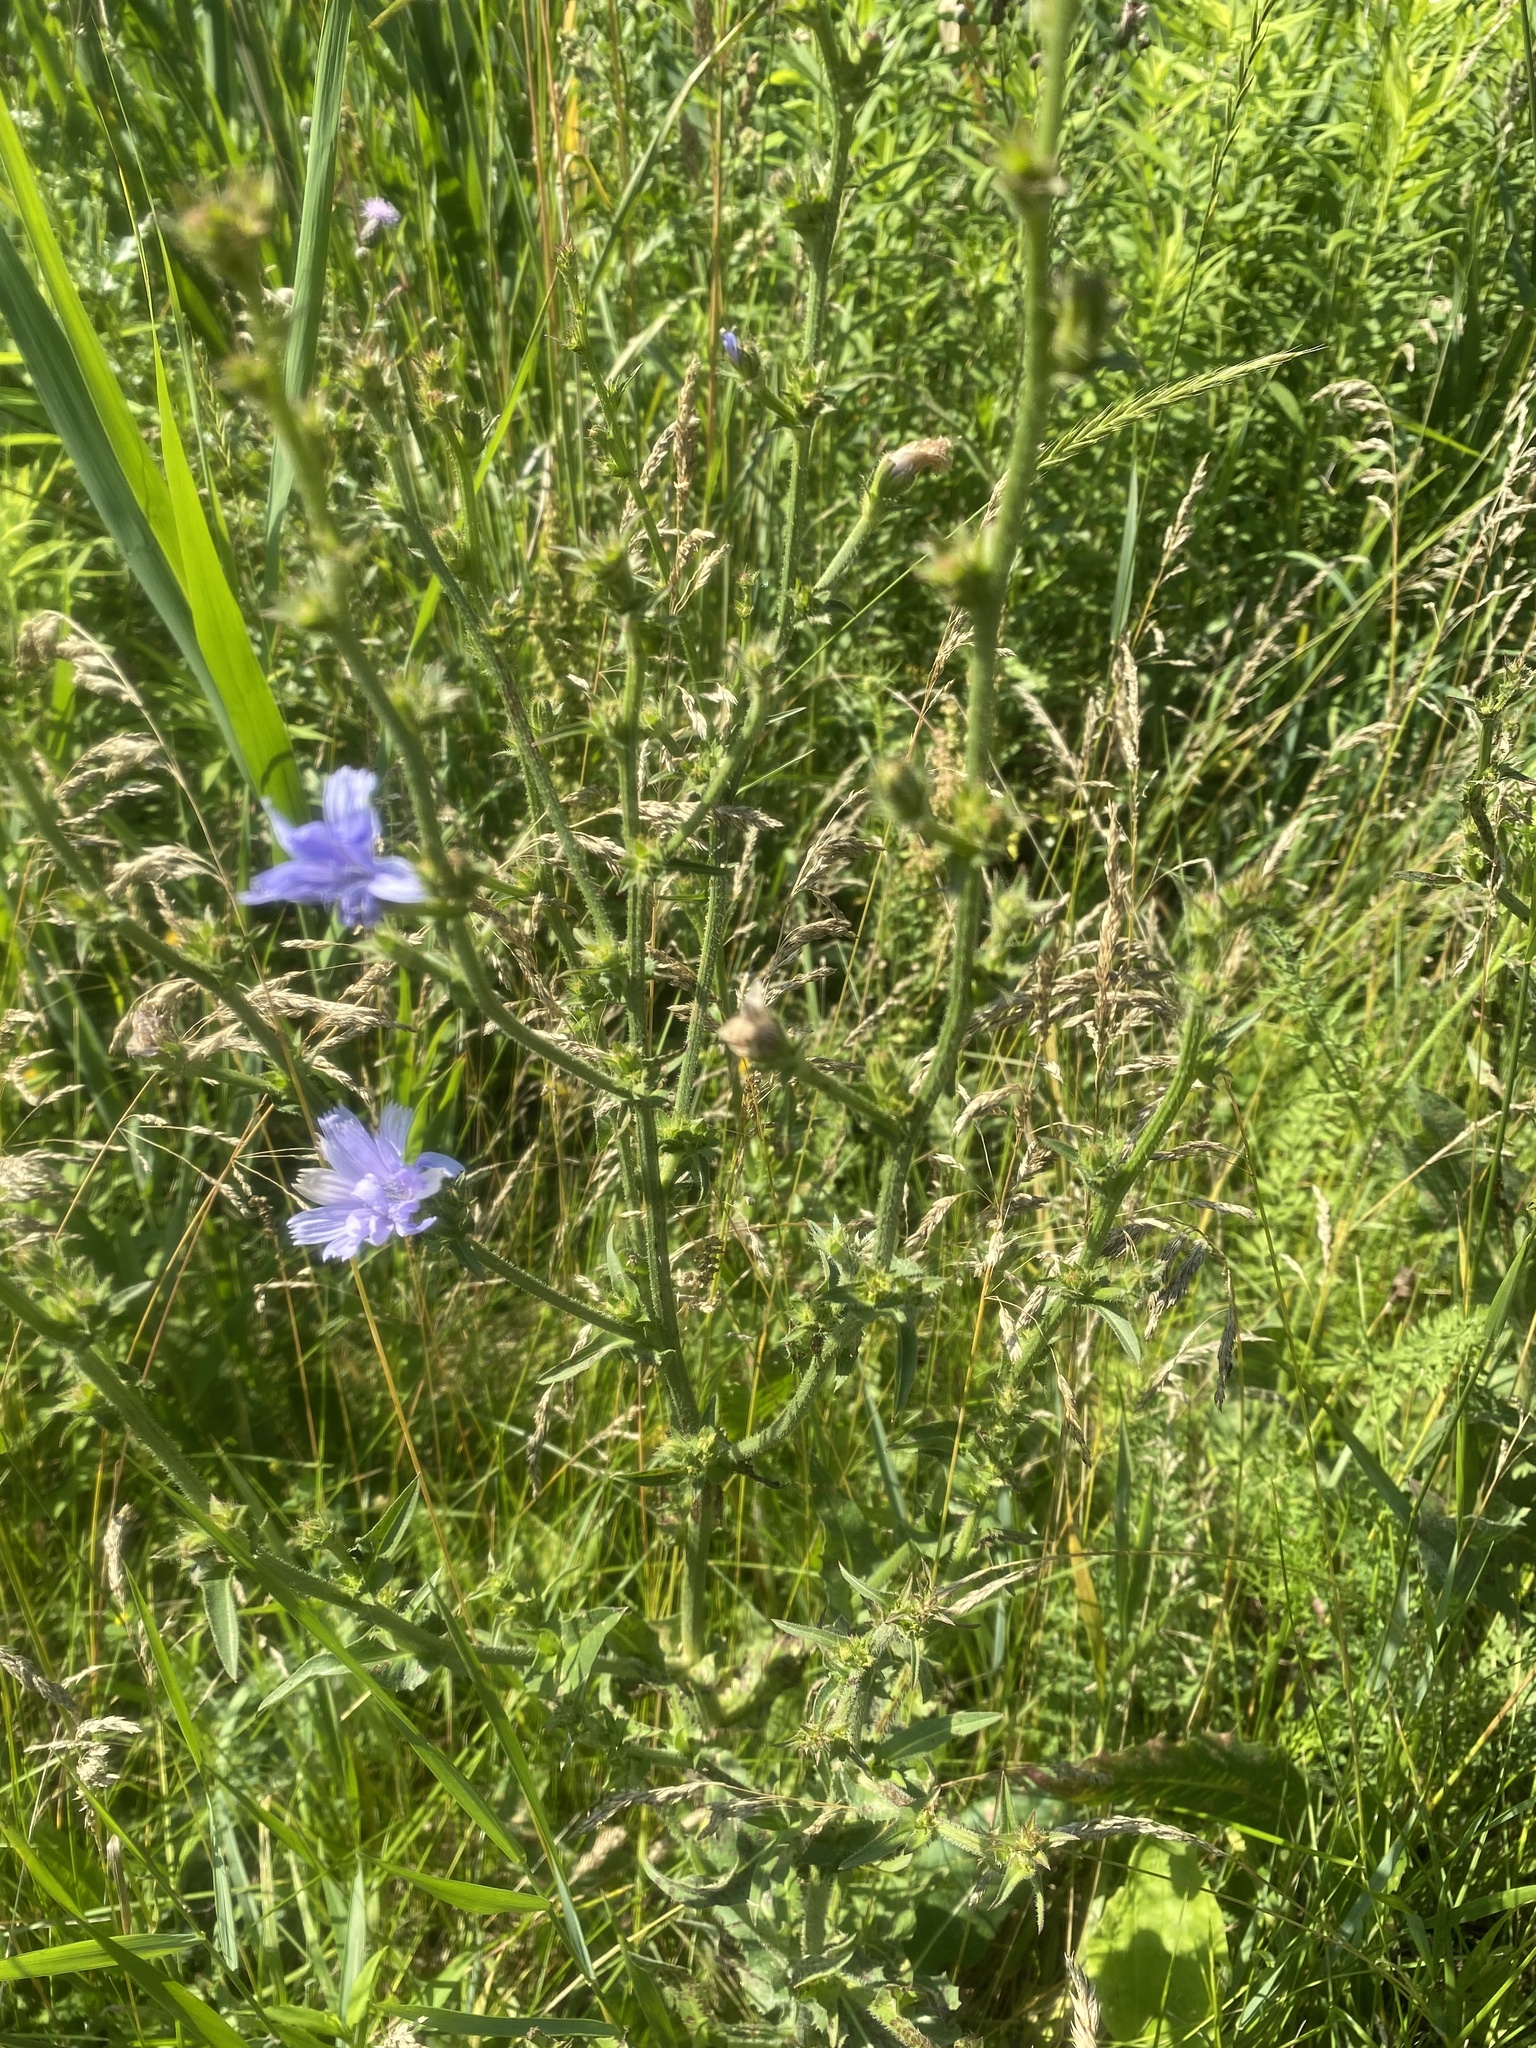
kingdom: Plantae
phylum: Tracheophyta
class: Magnoliopsida
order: Asterales
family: Asteraceae
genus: Cichorium
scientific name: Cichorium intybus
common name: Chicory
